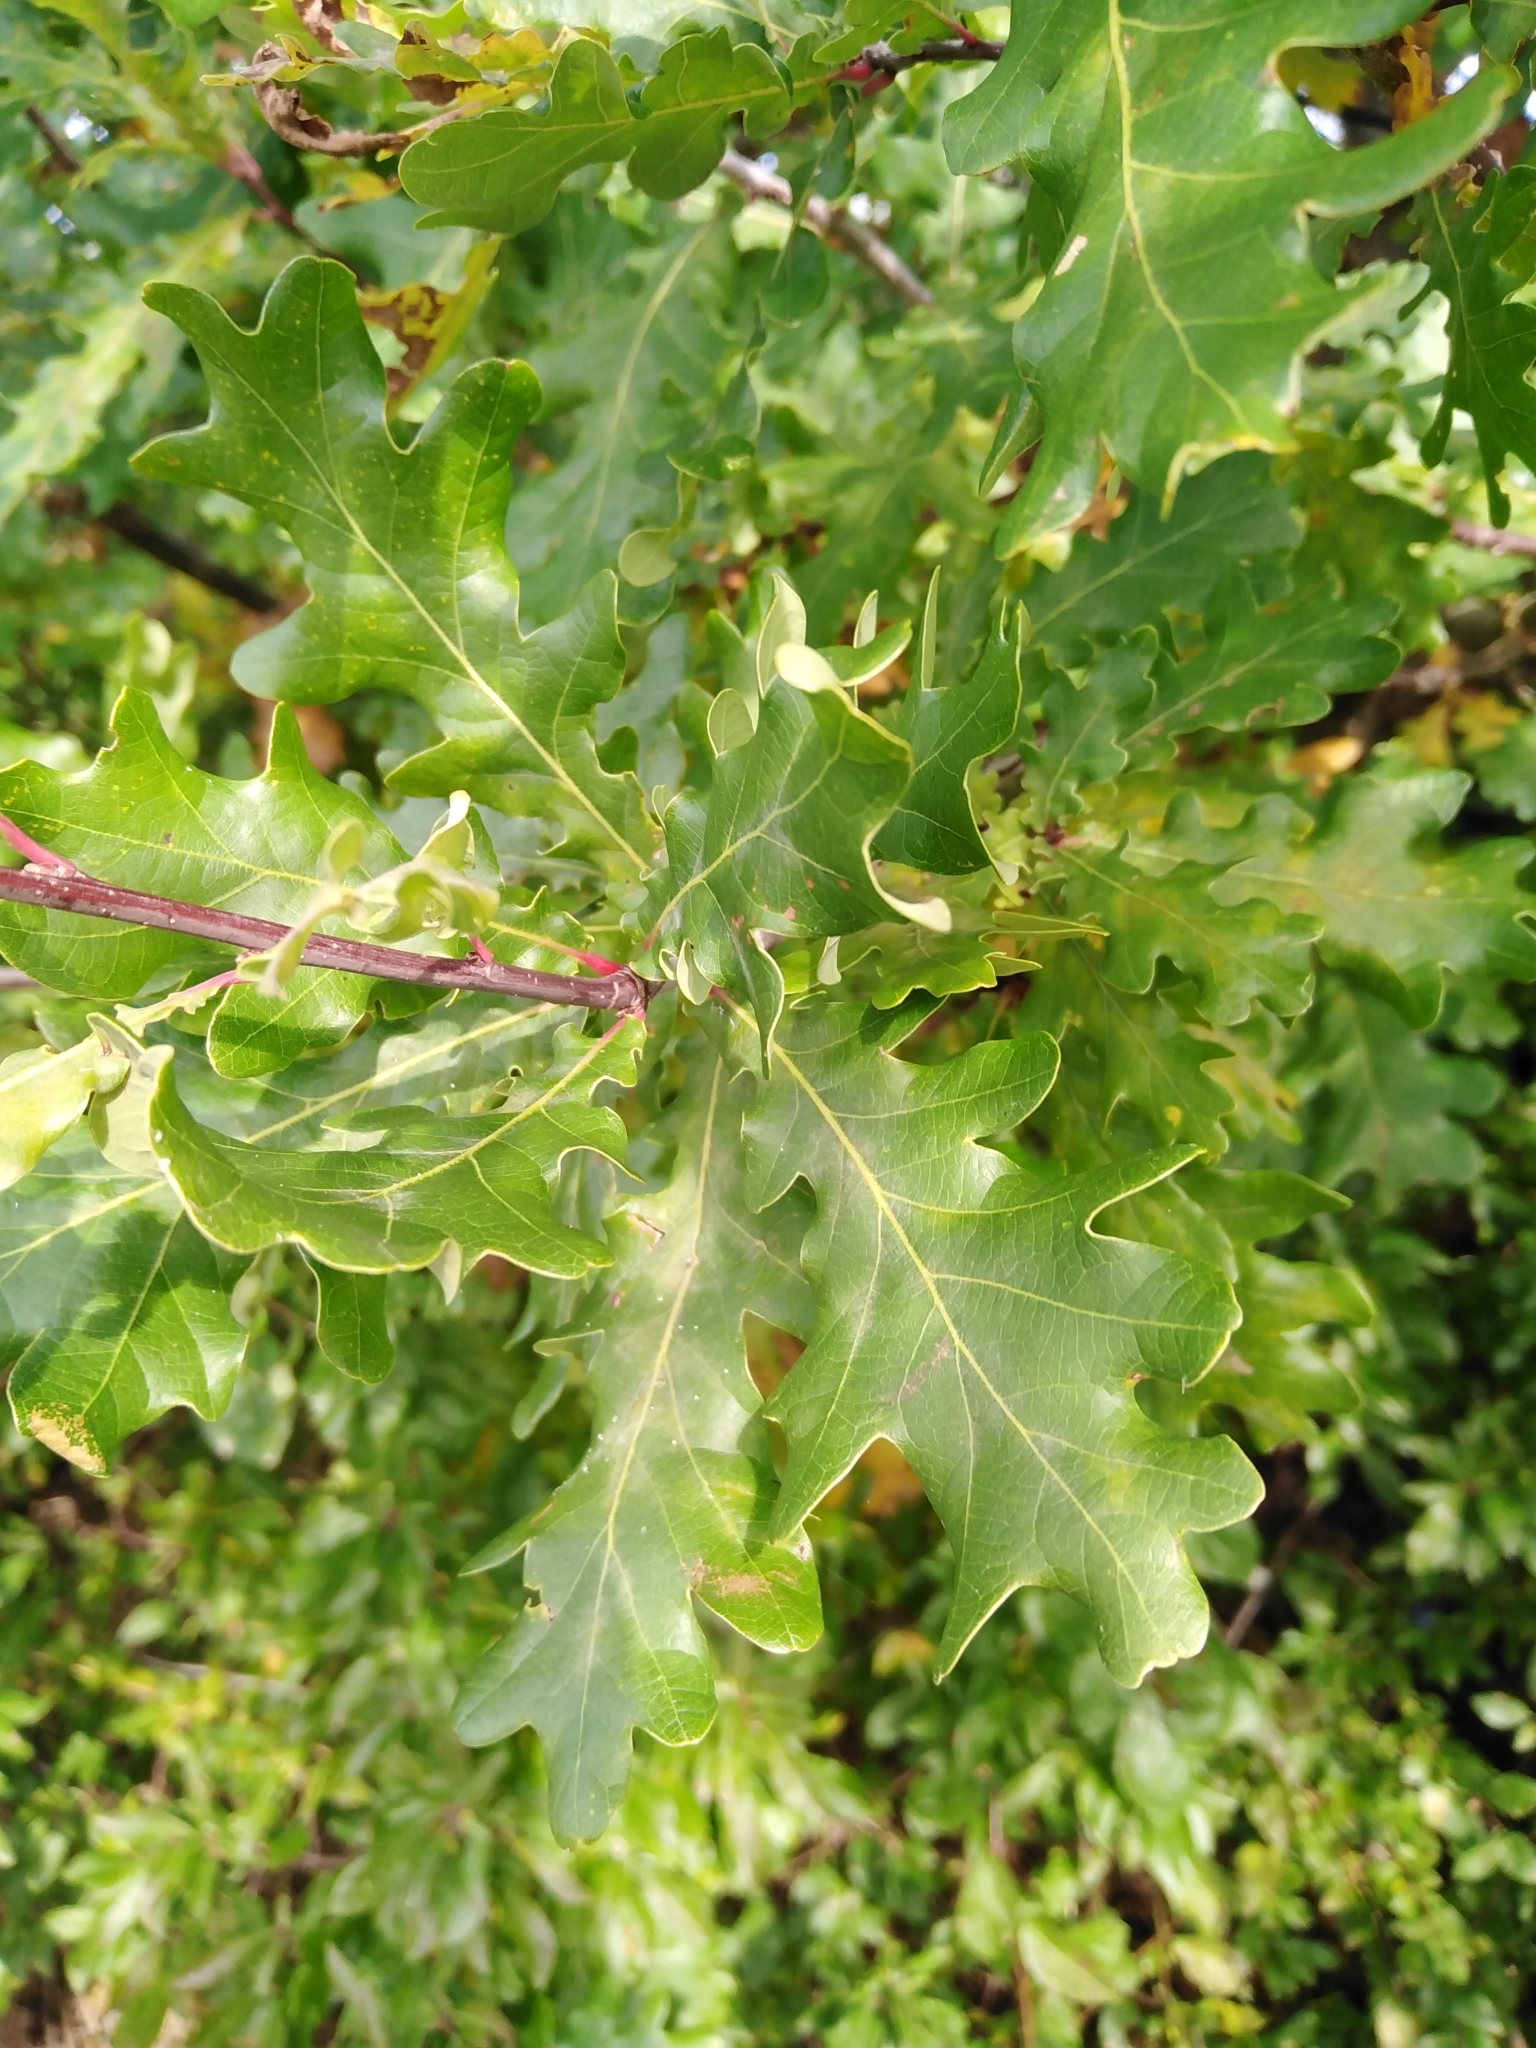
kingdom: Plantae
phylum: Tracheophyta
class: Magnoliopsida
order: Fagales
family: Fagaceae
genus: Quercus
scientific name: Quercus robur
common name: Pedunculate oak
